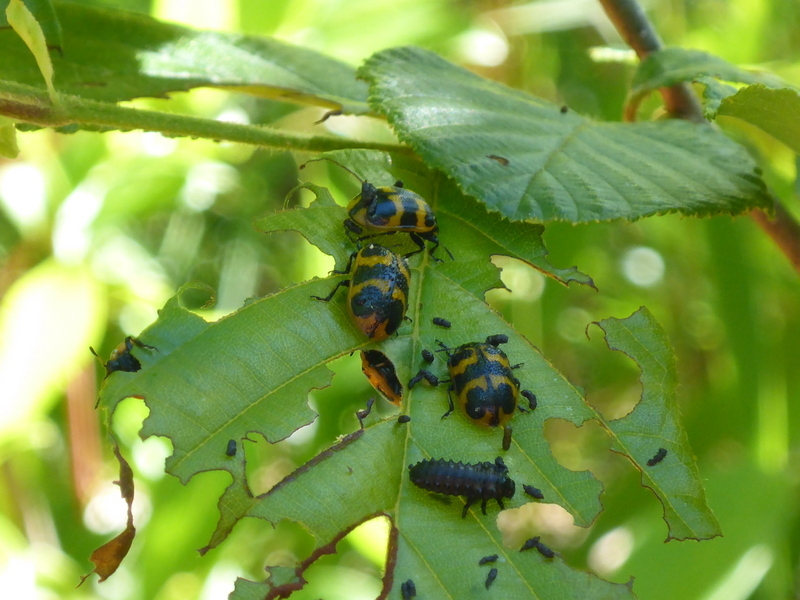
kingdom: Animalia
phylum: Arthropoda
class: Insecta
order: Coleoptera
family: Chrysomelidae
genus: Chrysomela
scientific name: Chrysomela interrupta
